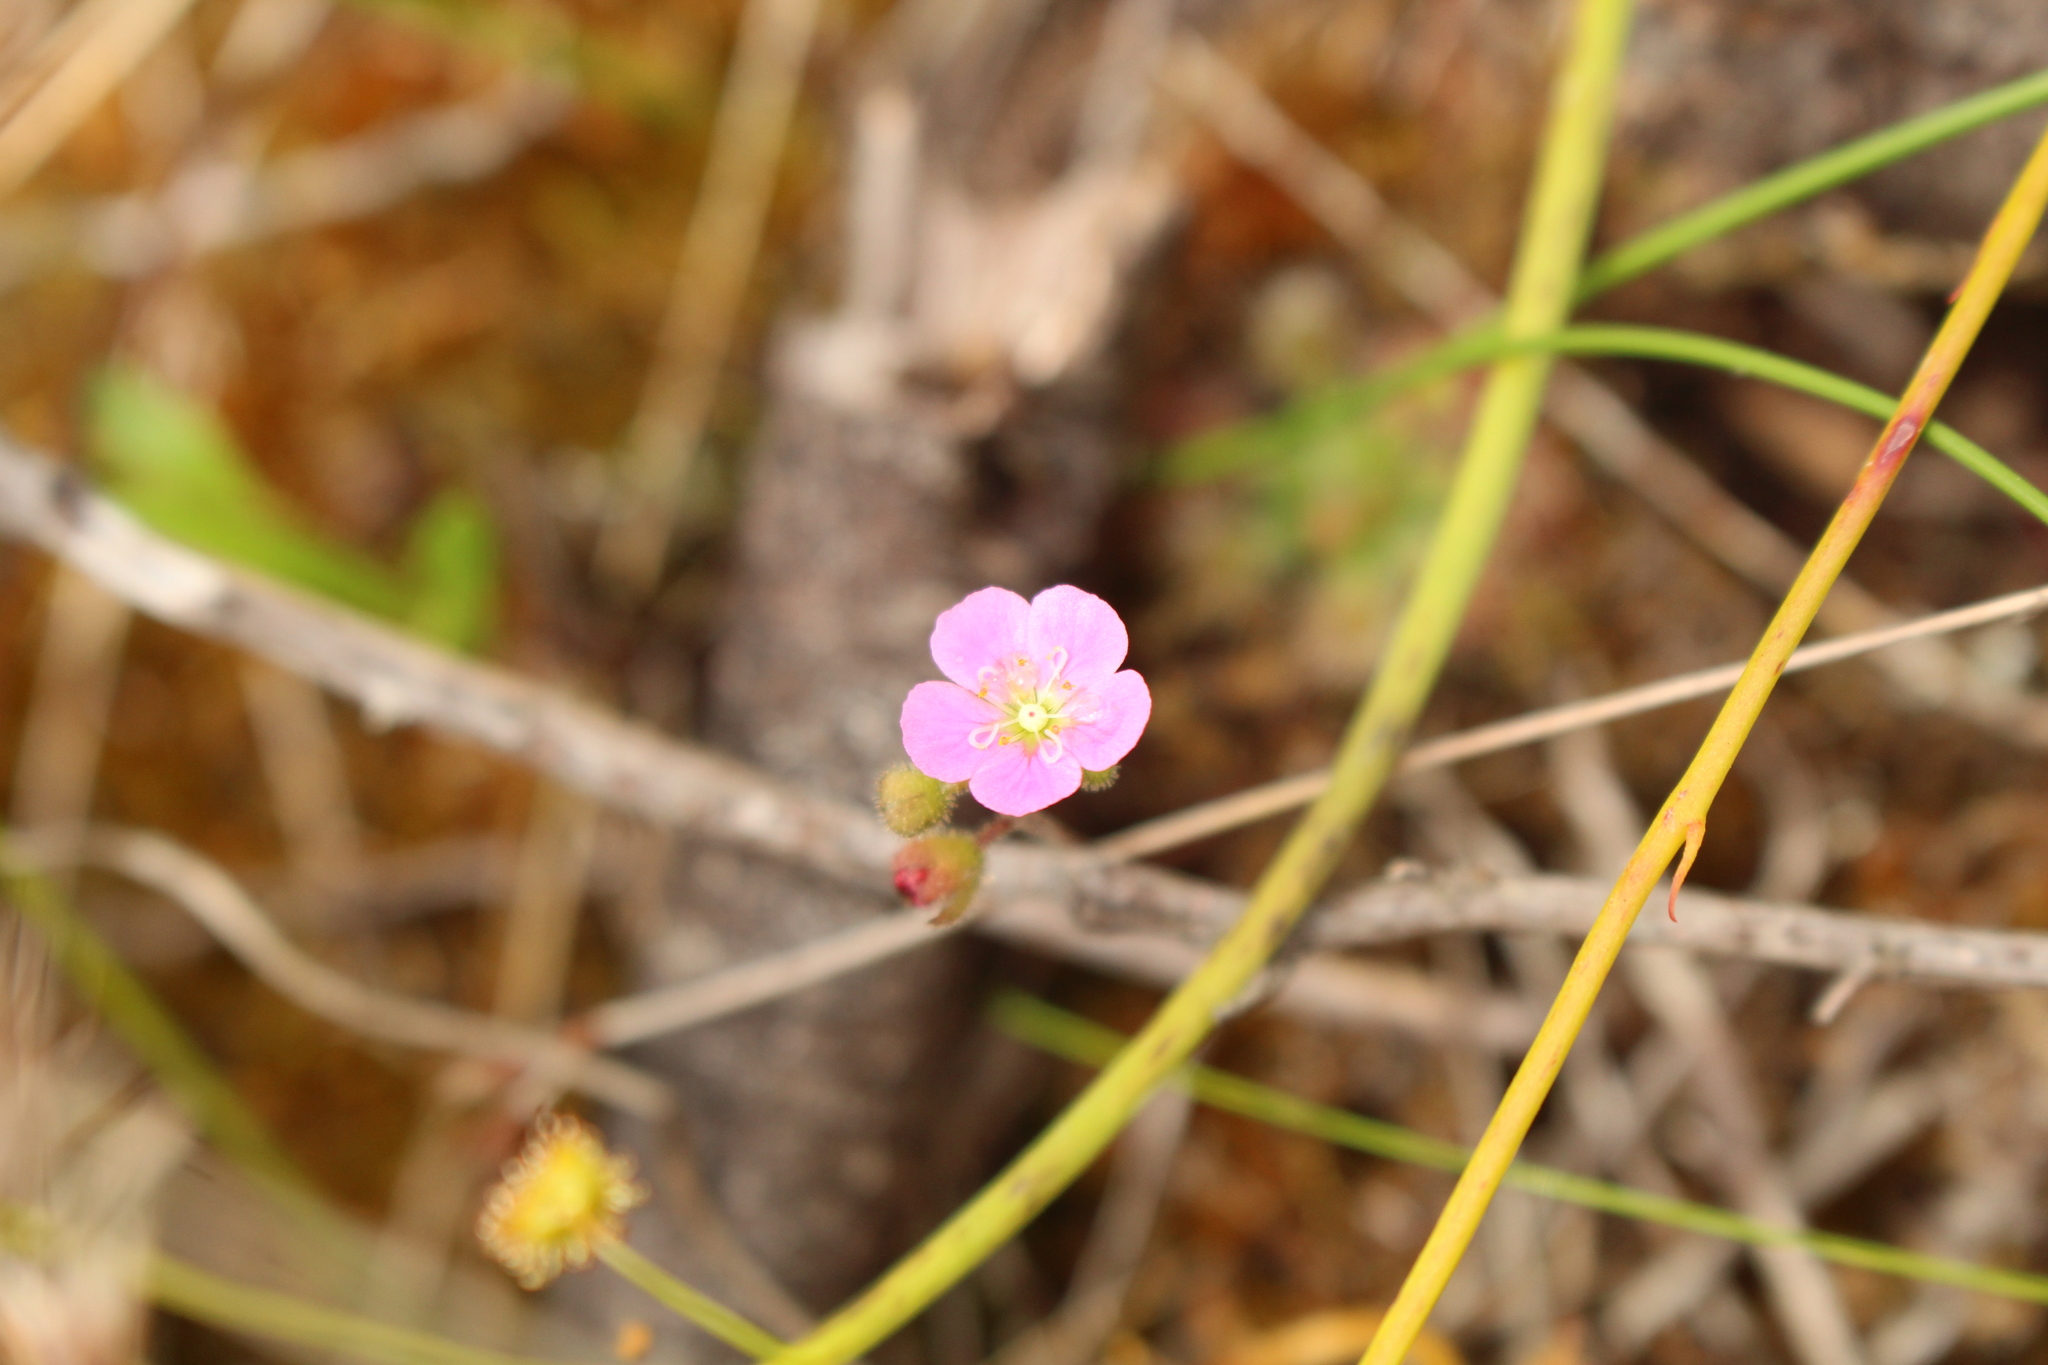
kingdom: Plantae
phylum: Tracheophyta
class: Magnoliopsida
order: Caryophyllales
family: Droseraceae
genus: Drosera
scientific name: Drosera pulchella
